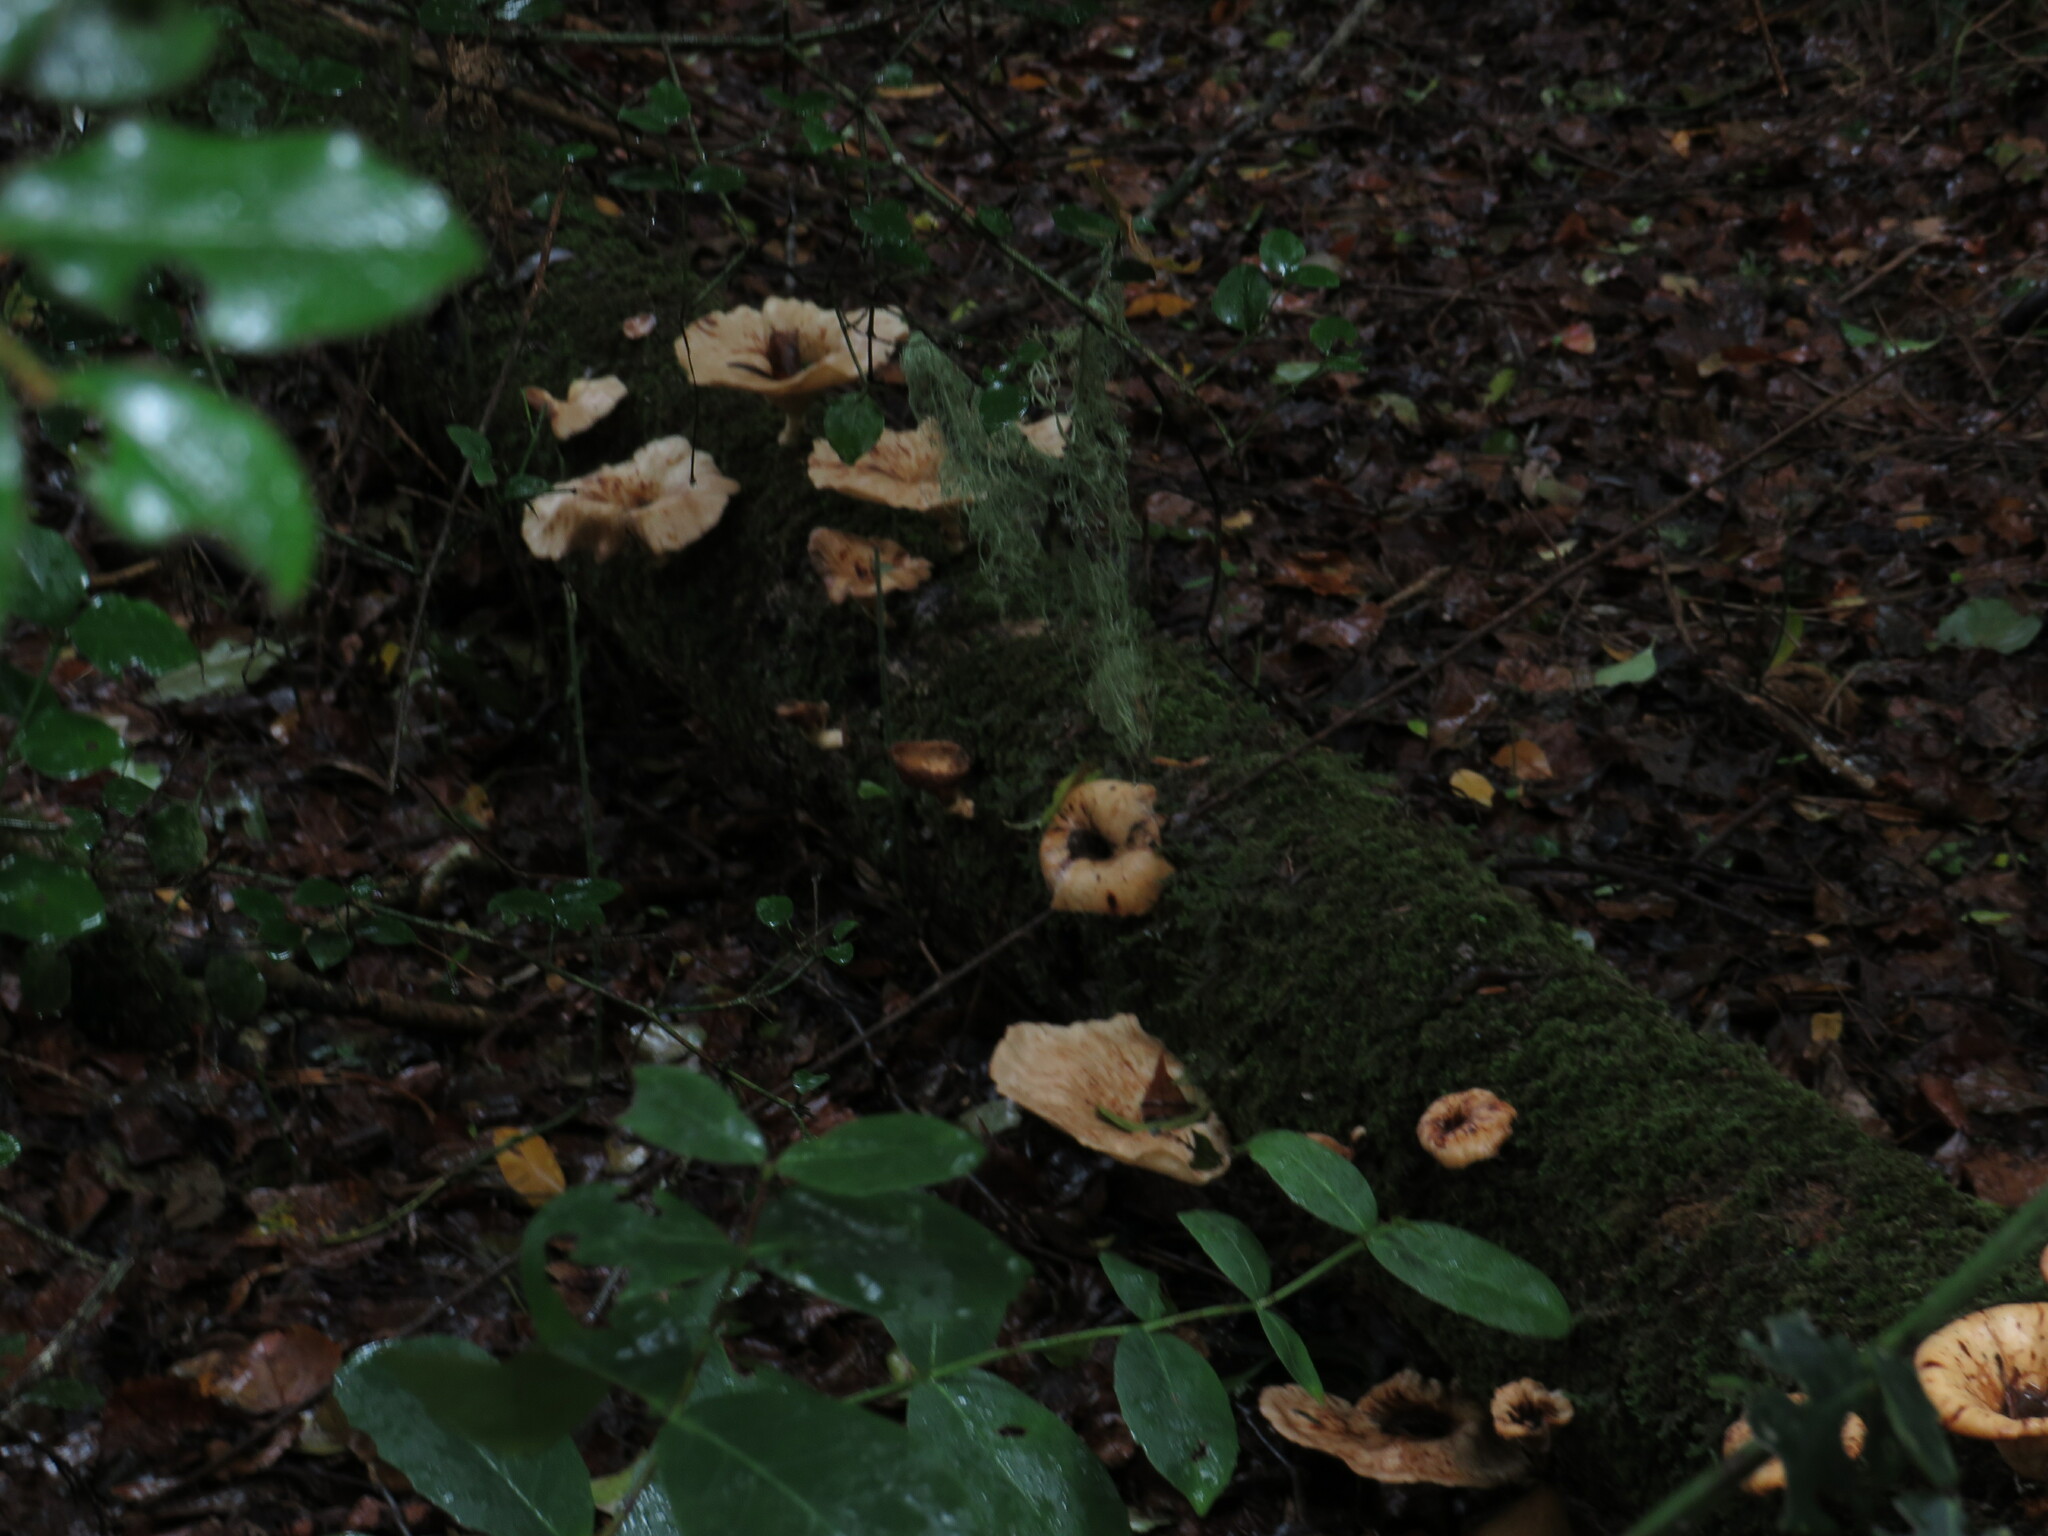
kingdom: Fungi
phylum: Basidiomycota
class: Agaricomycetes
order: Polyporales
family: Polyporaceae
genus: Lentinus
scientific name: Lentinus sajor-caju
